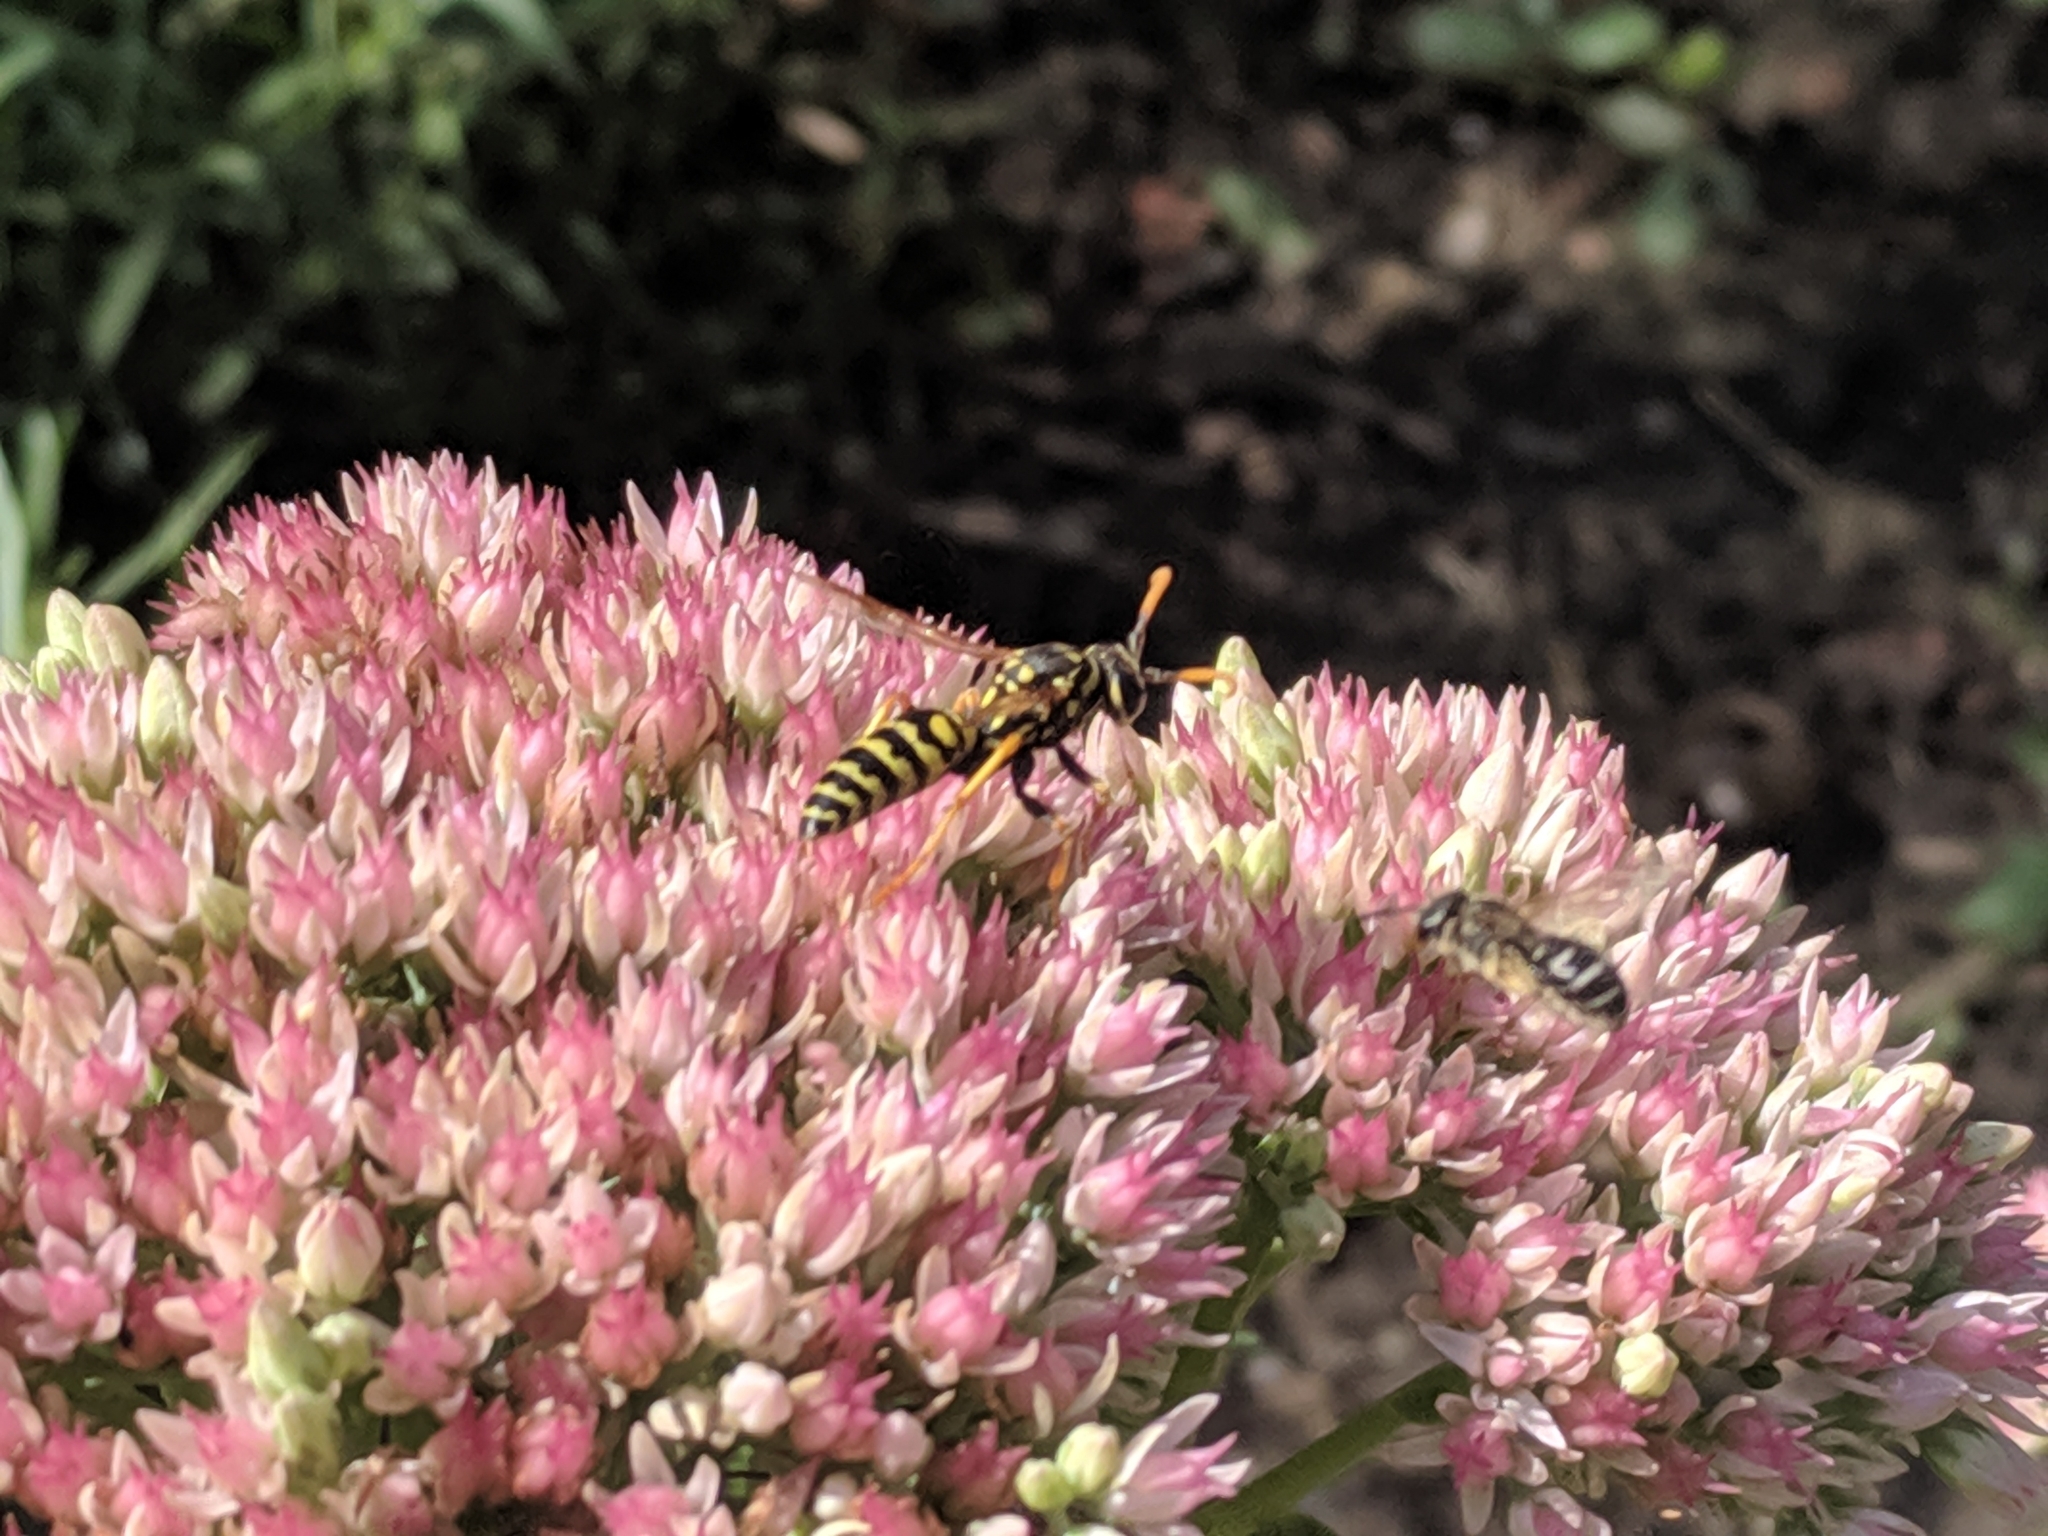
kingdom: Animalia
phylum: Arthropoda
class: Insecta
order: Hymenoptera
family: Eumenidae
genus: Polistes
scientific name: Polistes dominula
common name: Paper wasp
